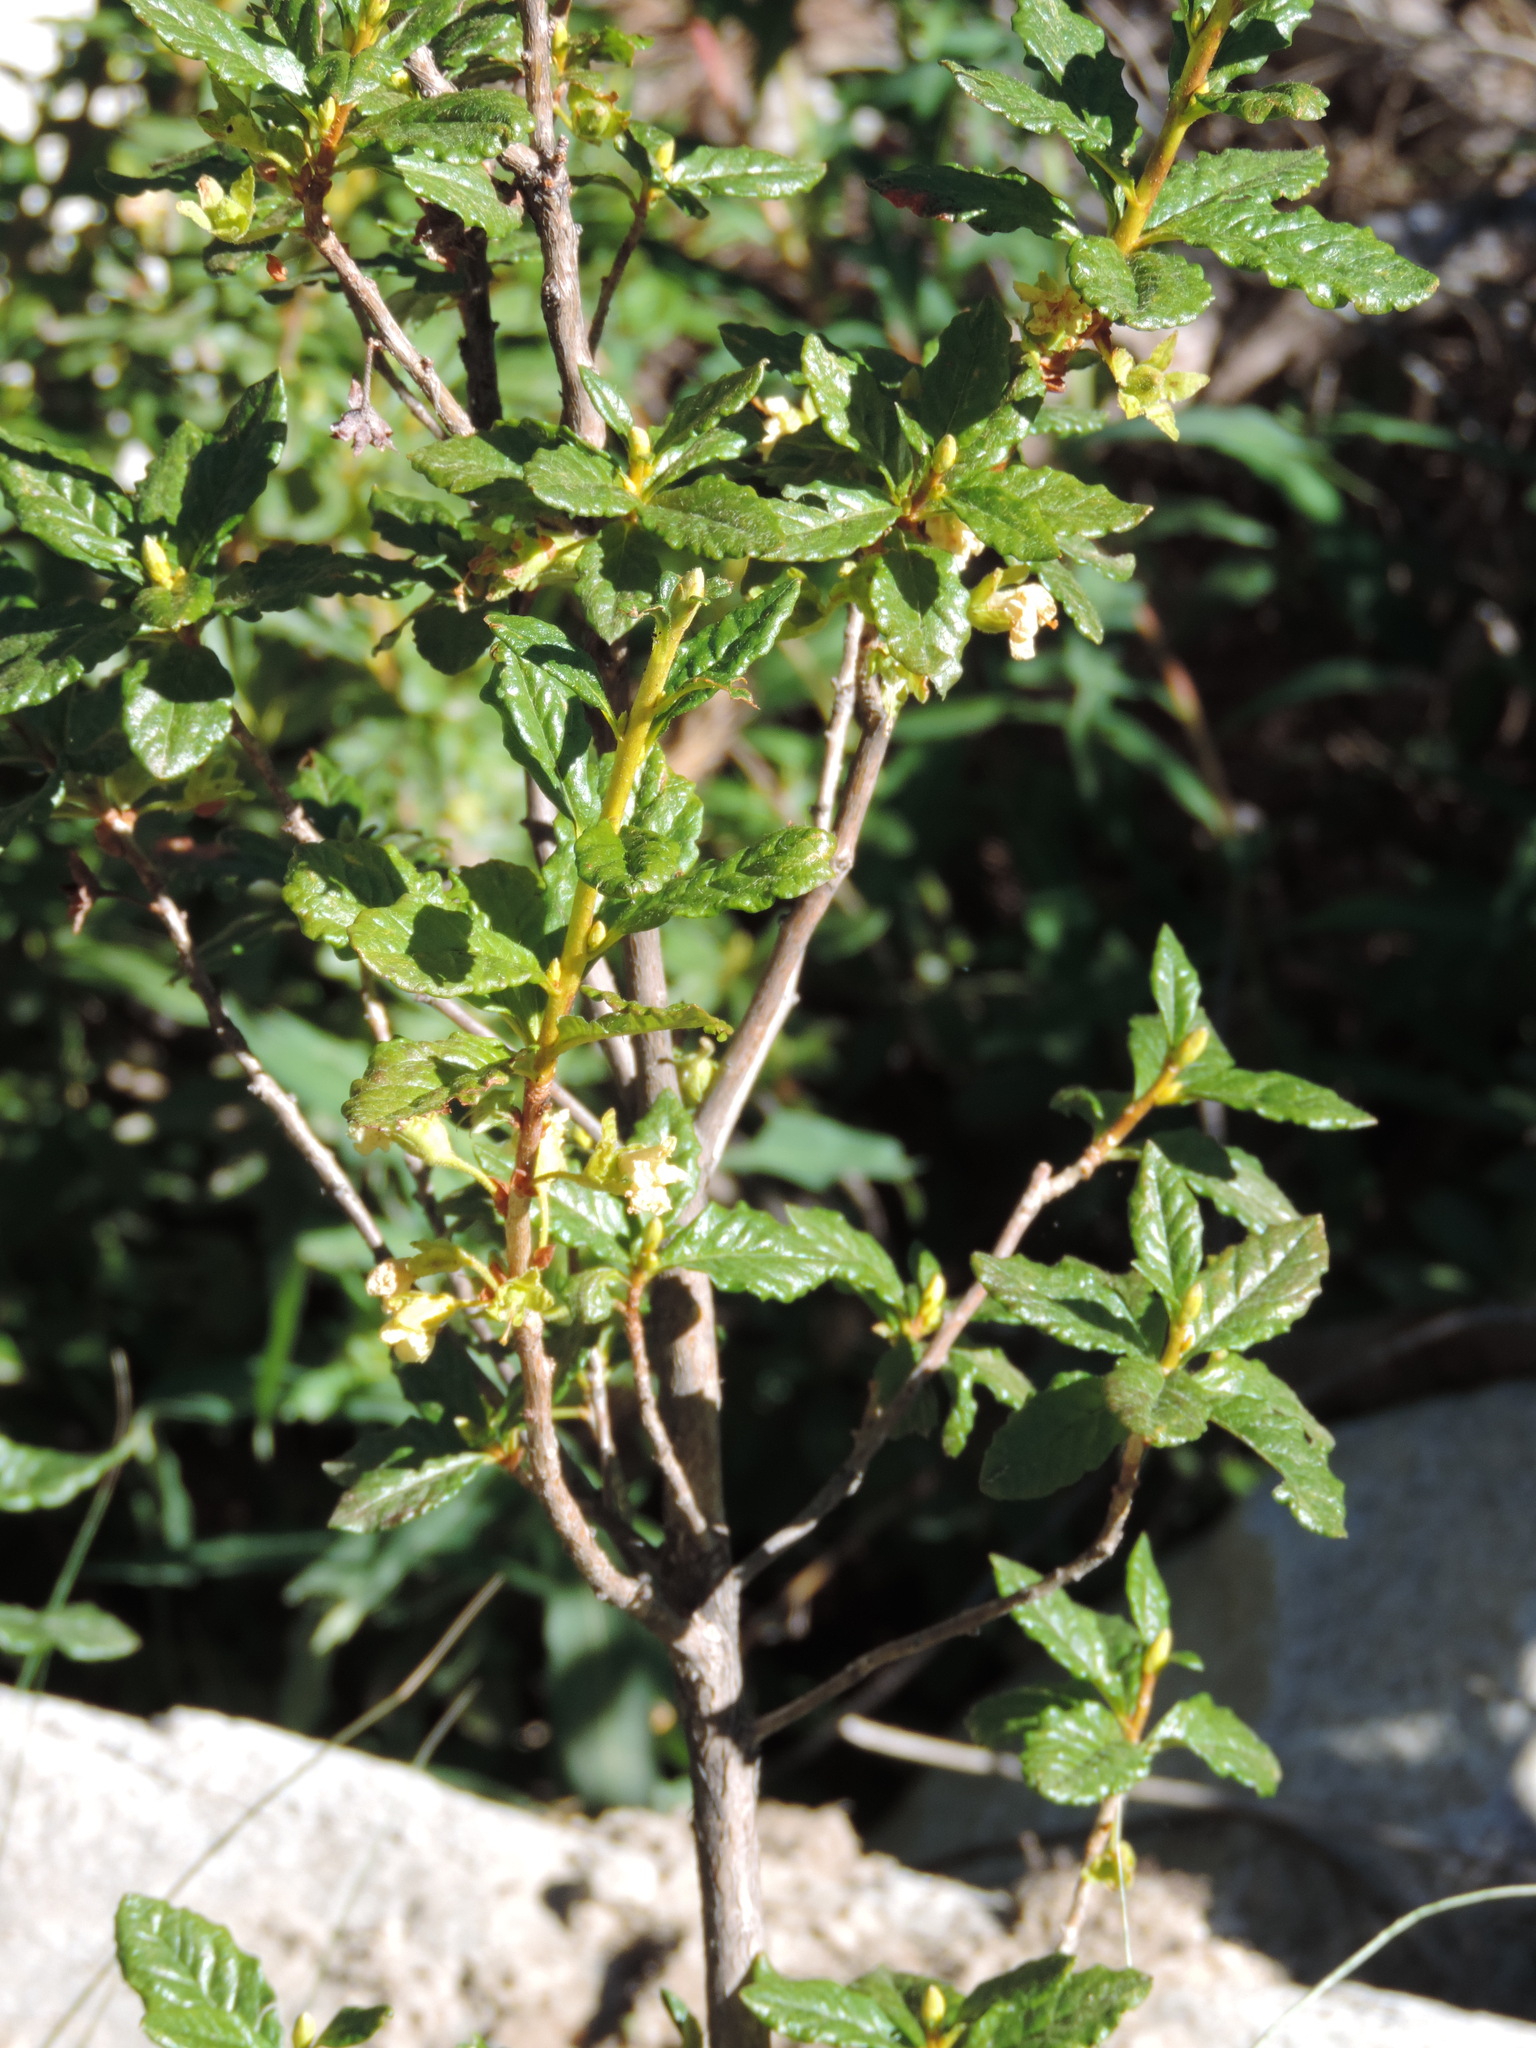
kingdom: Plantae
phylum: Tracheophyta
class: Magnoliopsida
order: Ericales
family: Ericaceae
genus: Rhododendron
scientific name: Rhododendron albiflorum
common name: White rhododendron
